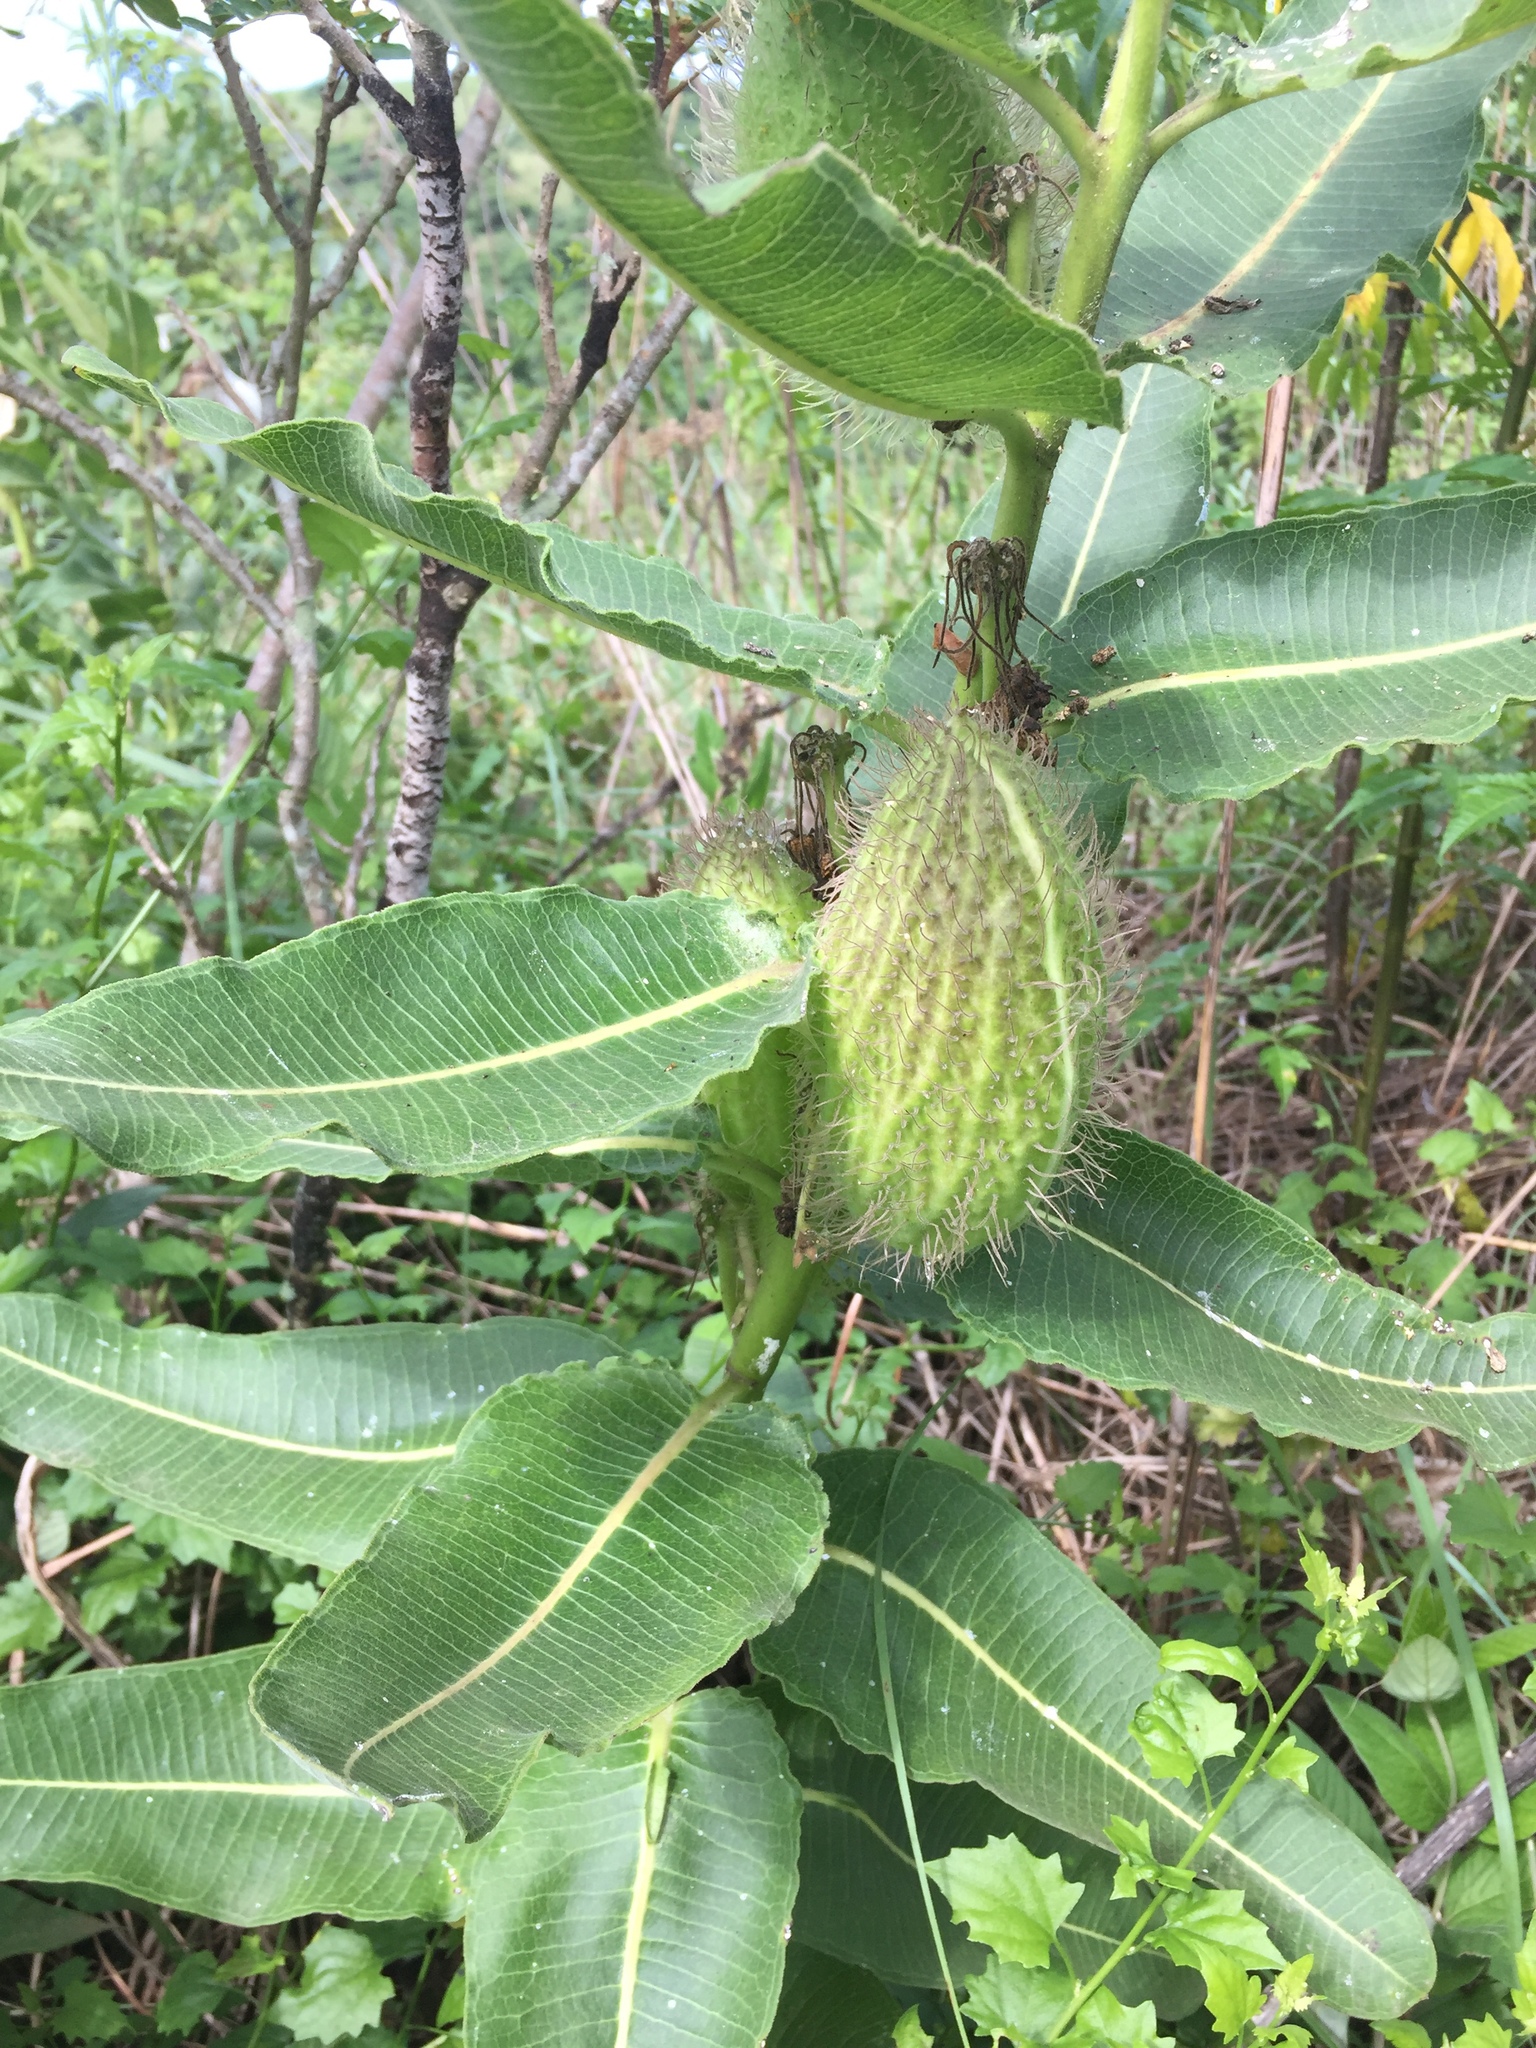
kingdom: Plantae
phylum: Tracheophyta
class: Magnoliopsida
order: Gentianales
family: Apocynaceae
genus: Xysmalobium
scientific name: Xysmalobium undulatum
